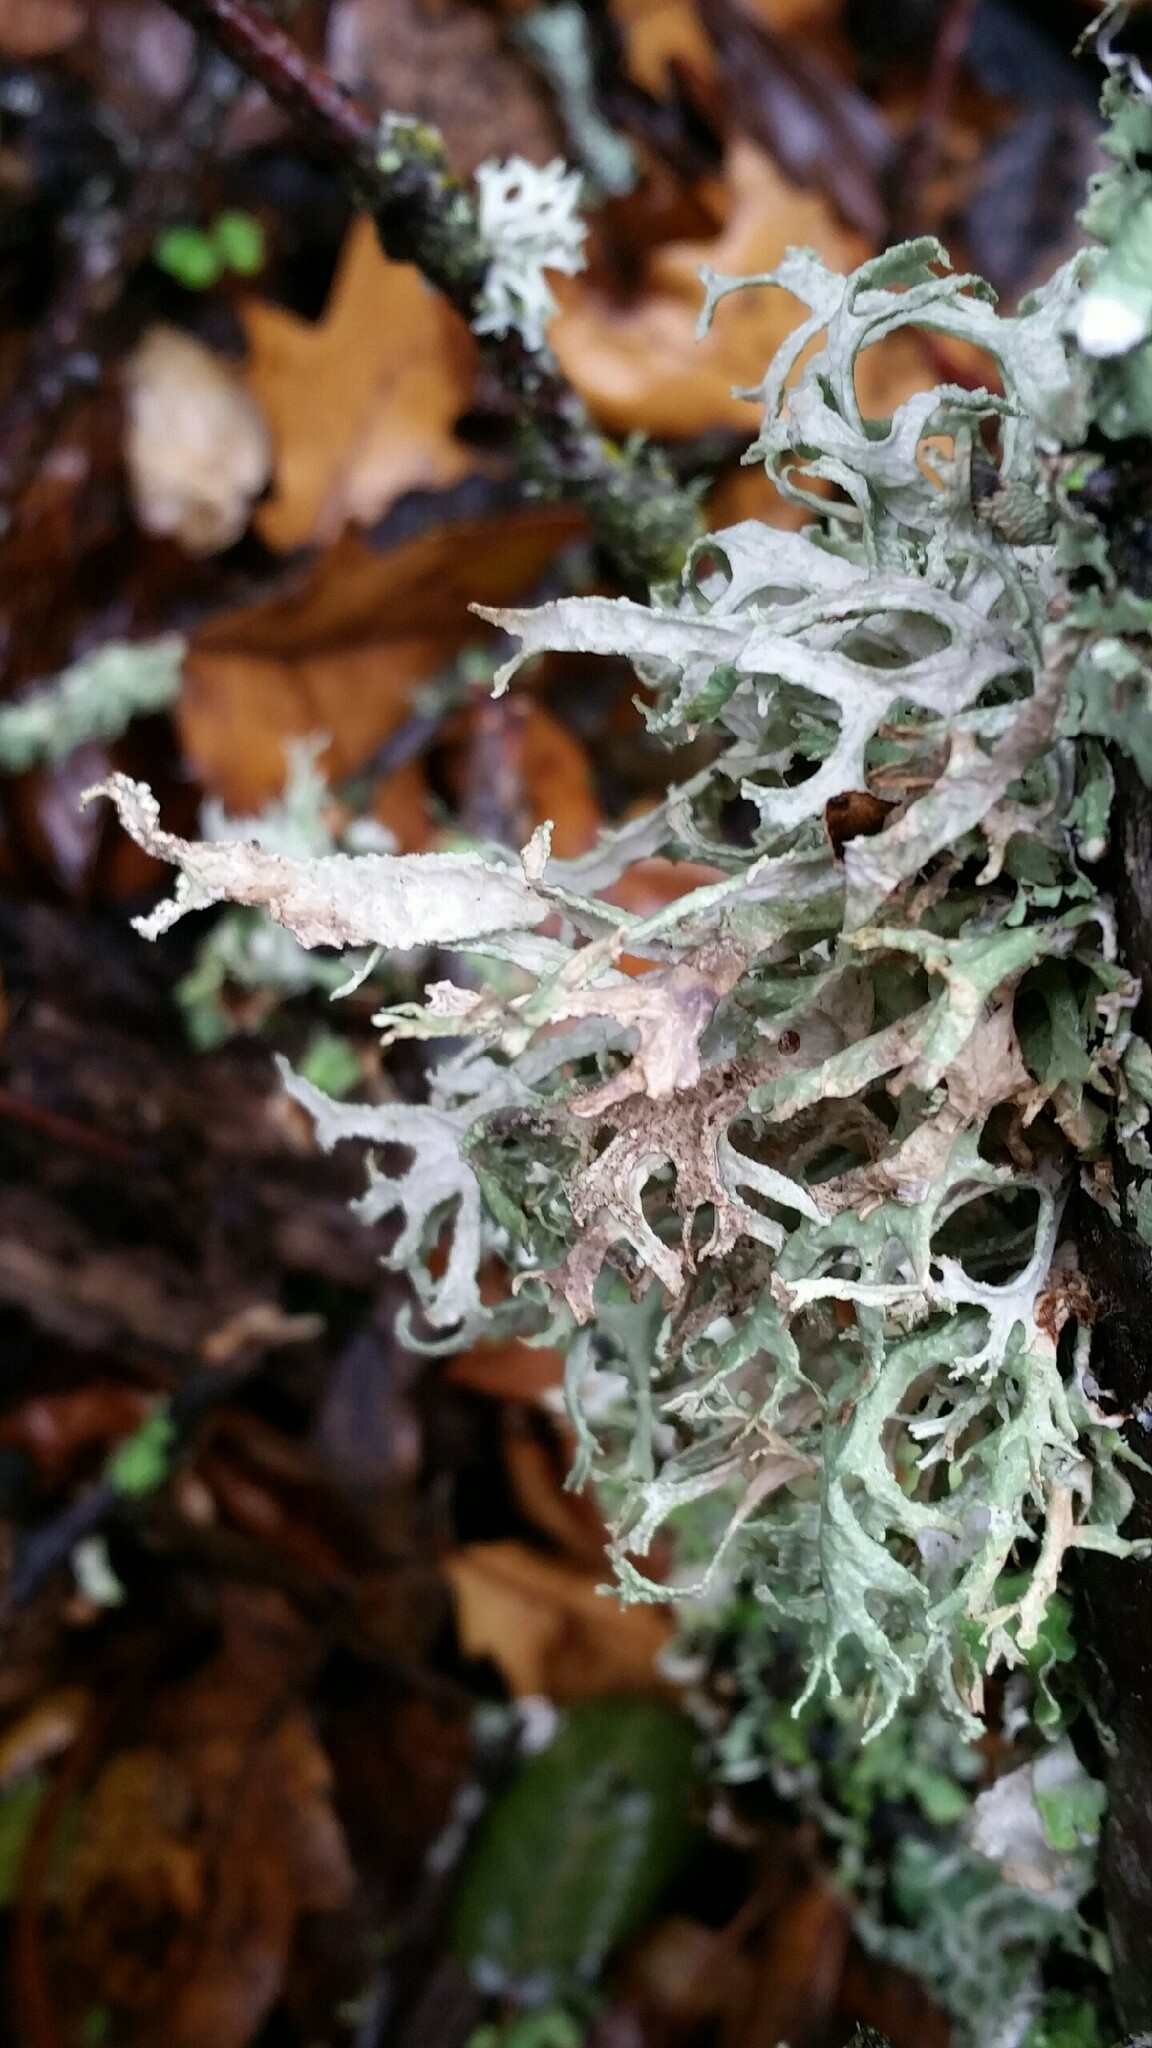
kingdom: Fungi
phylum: Ascomycota
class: Lecanoromycetes
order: Lecanorales
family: Parmeliaceae
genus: Evernia
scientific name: Evernia prunastri
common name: Oak moss
